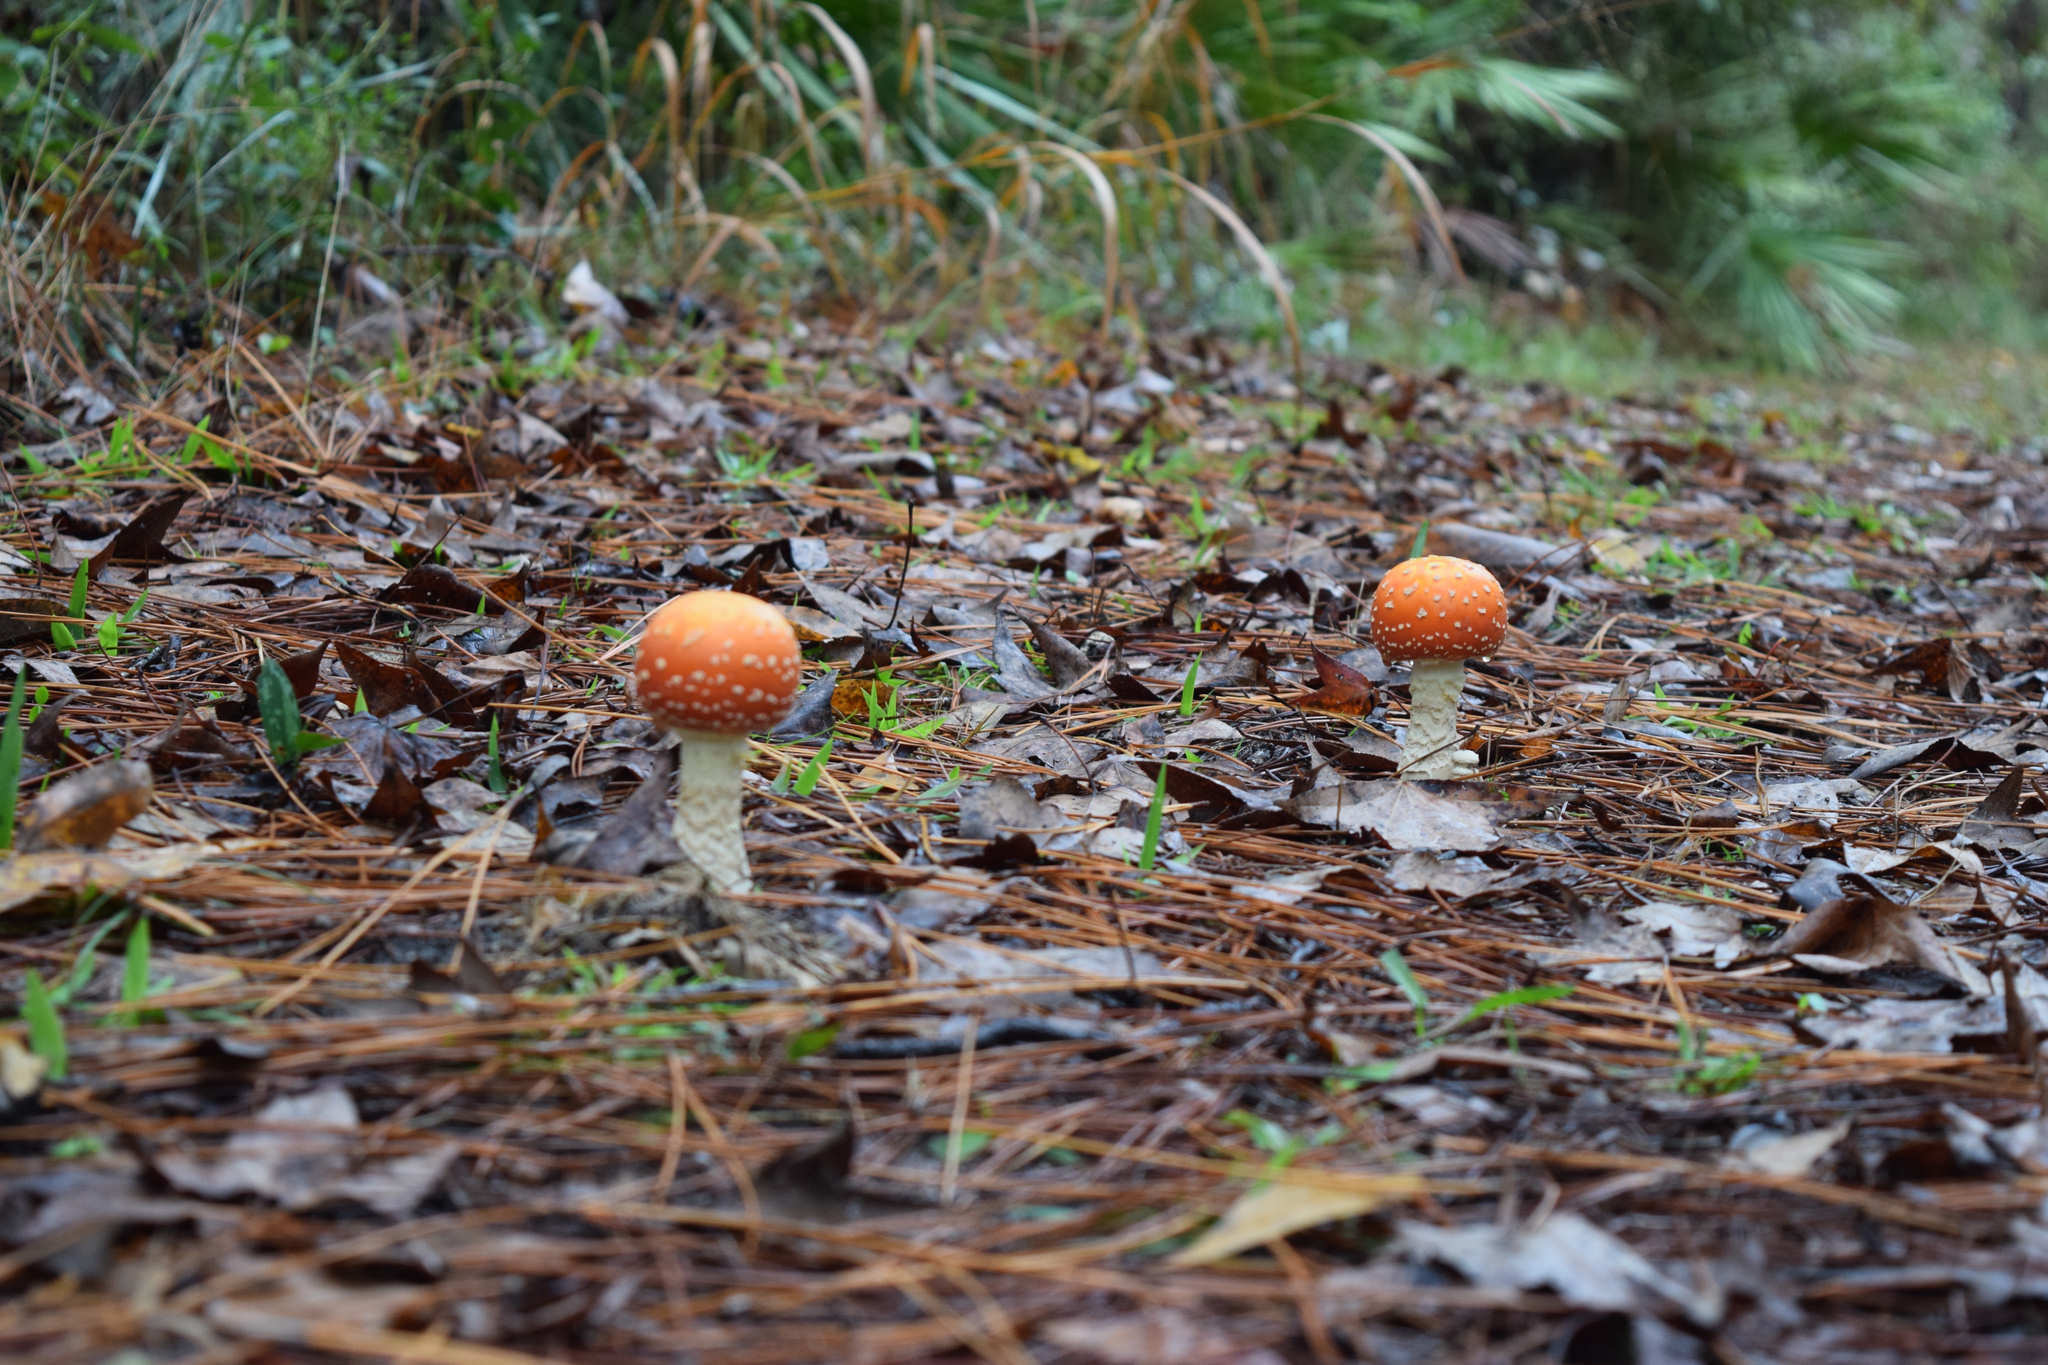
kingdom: Fungi
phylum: Basidiomycota
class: Agaricomycetes
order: Agaricales
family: Amanitaceae
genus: Amanita
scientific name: Amanita persicina
